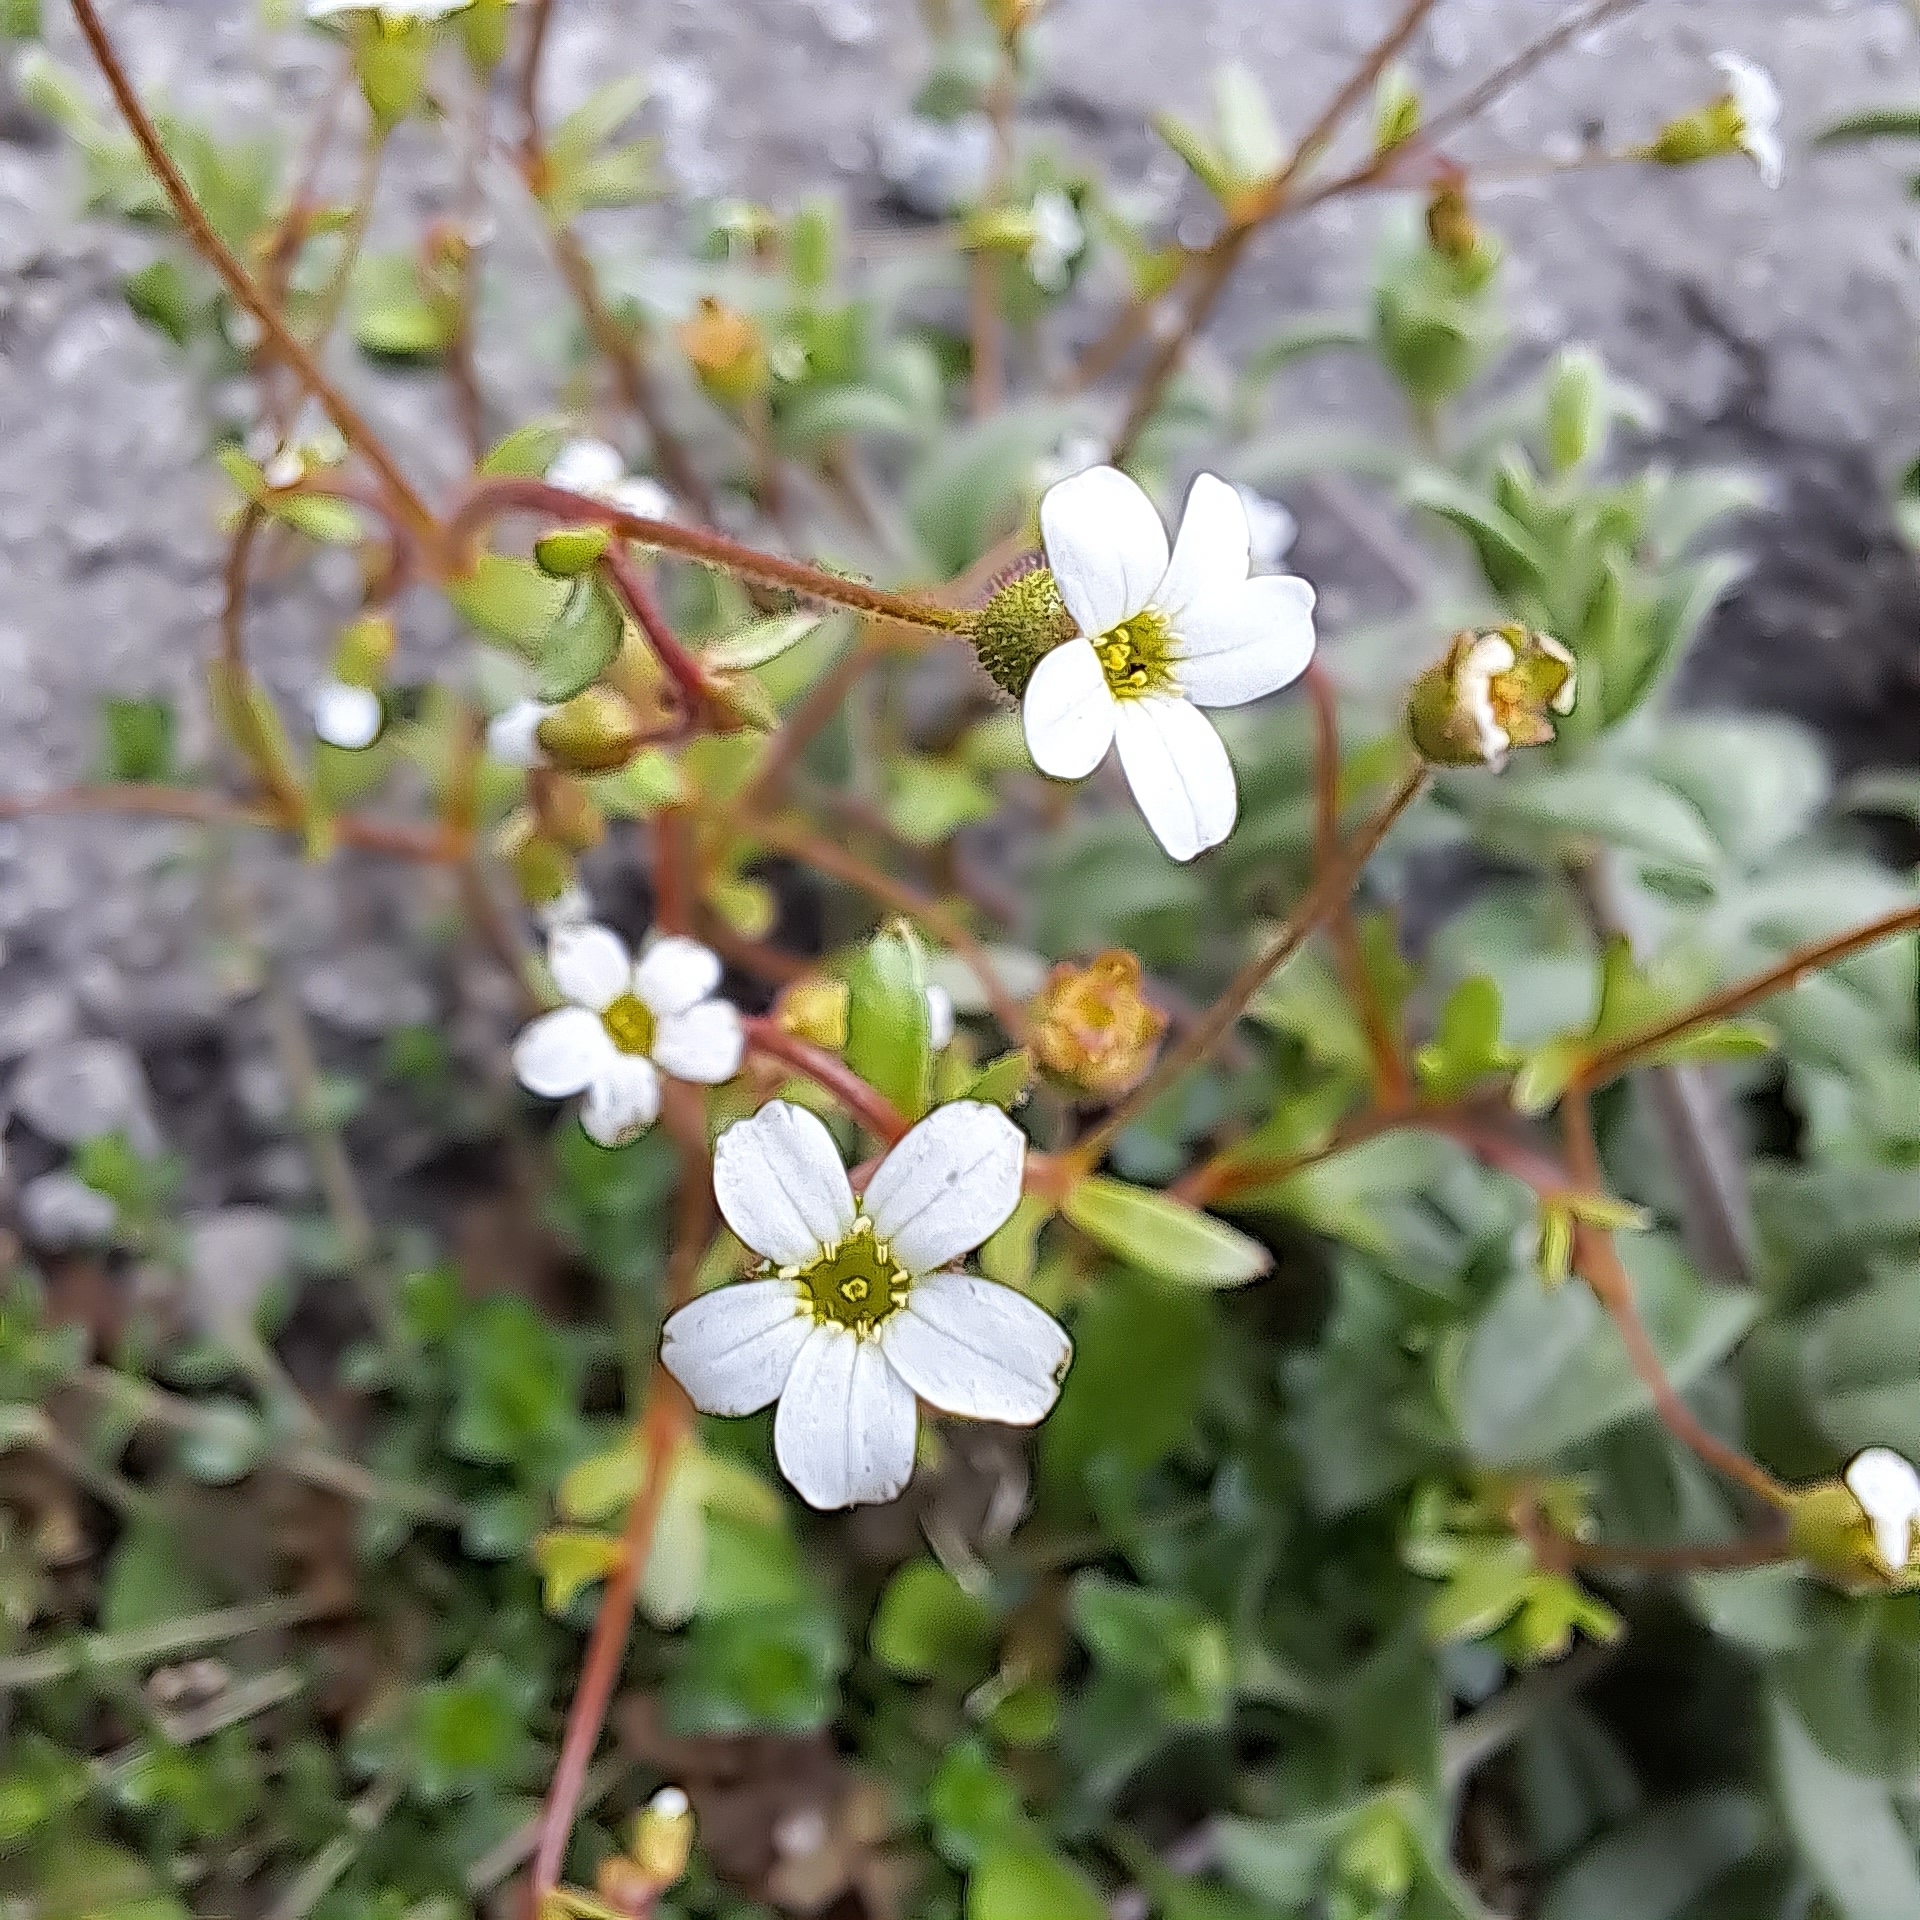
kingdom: Plantae
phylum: Tracheophyta
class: Magnoliopsida
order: Saxifragales
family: Saxifragaceae
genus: Saxifraga
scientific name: Saxifraga tridactylites
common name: Rue-leaved saxifrage
